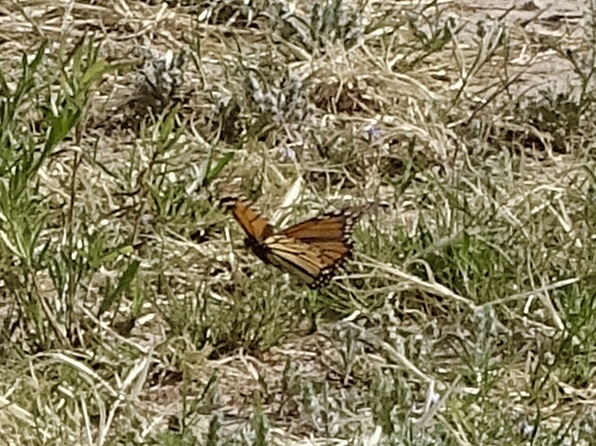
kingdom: Animalia
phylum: Arthropoda
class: Insecta
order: Lepidoptera
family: Nymphalidae
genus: Danaus
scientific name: Danaus plexippus
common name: Monarch
